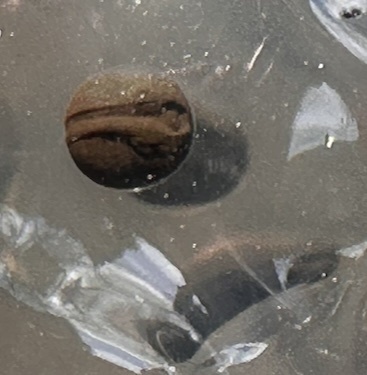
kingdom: Animalia
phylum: Chordata
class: Amphibia
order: Anura
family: Ranidae
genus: Rana
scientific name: Rana temporaria
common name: Common frog
